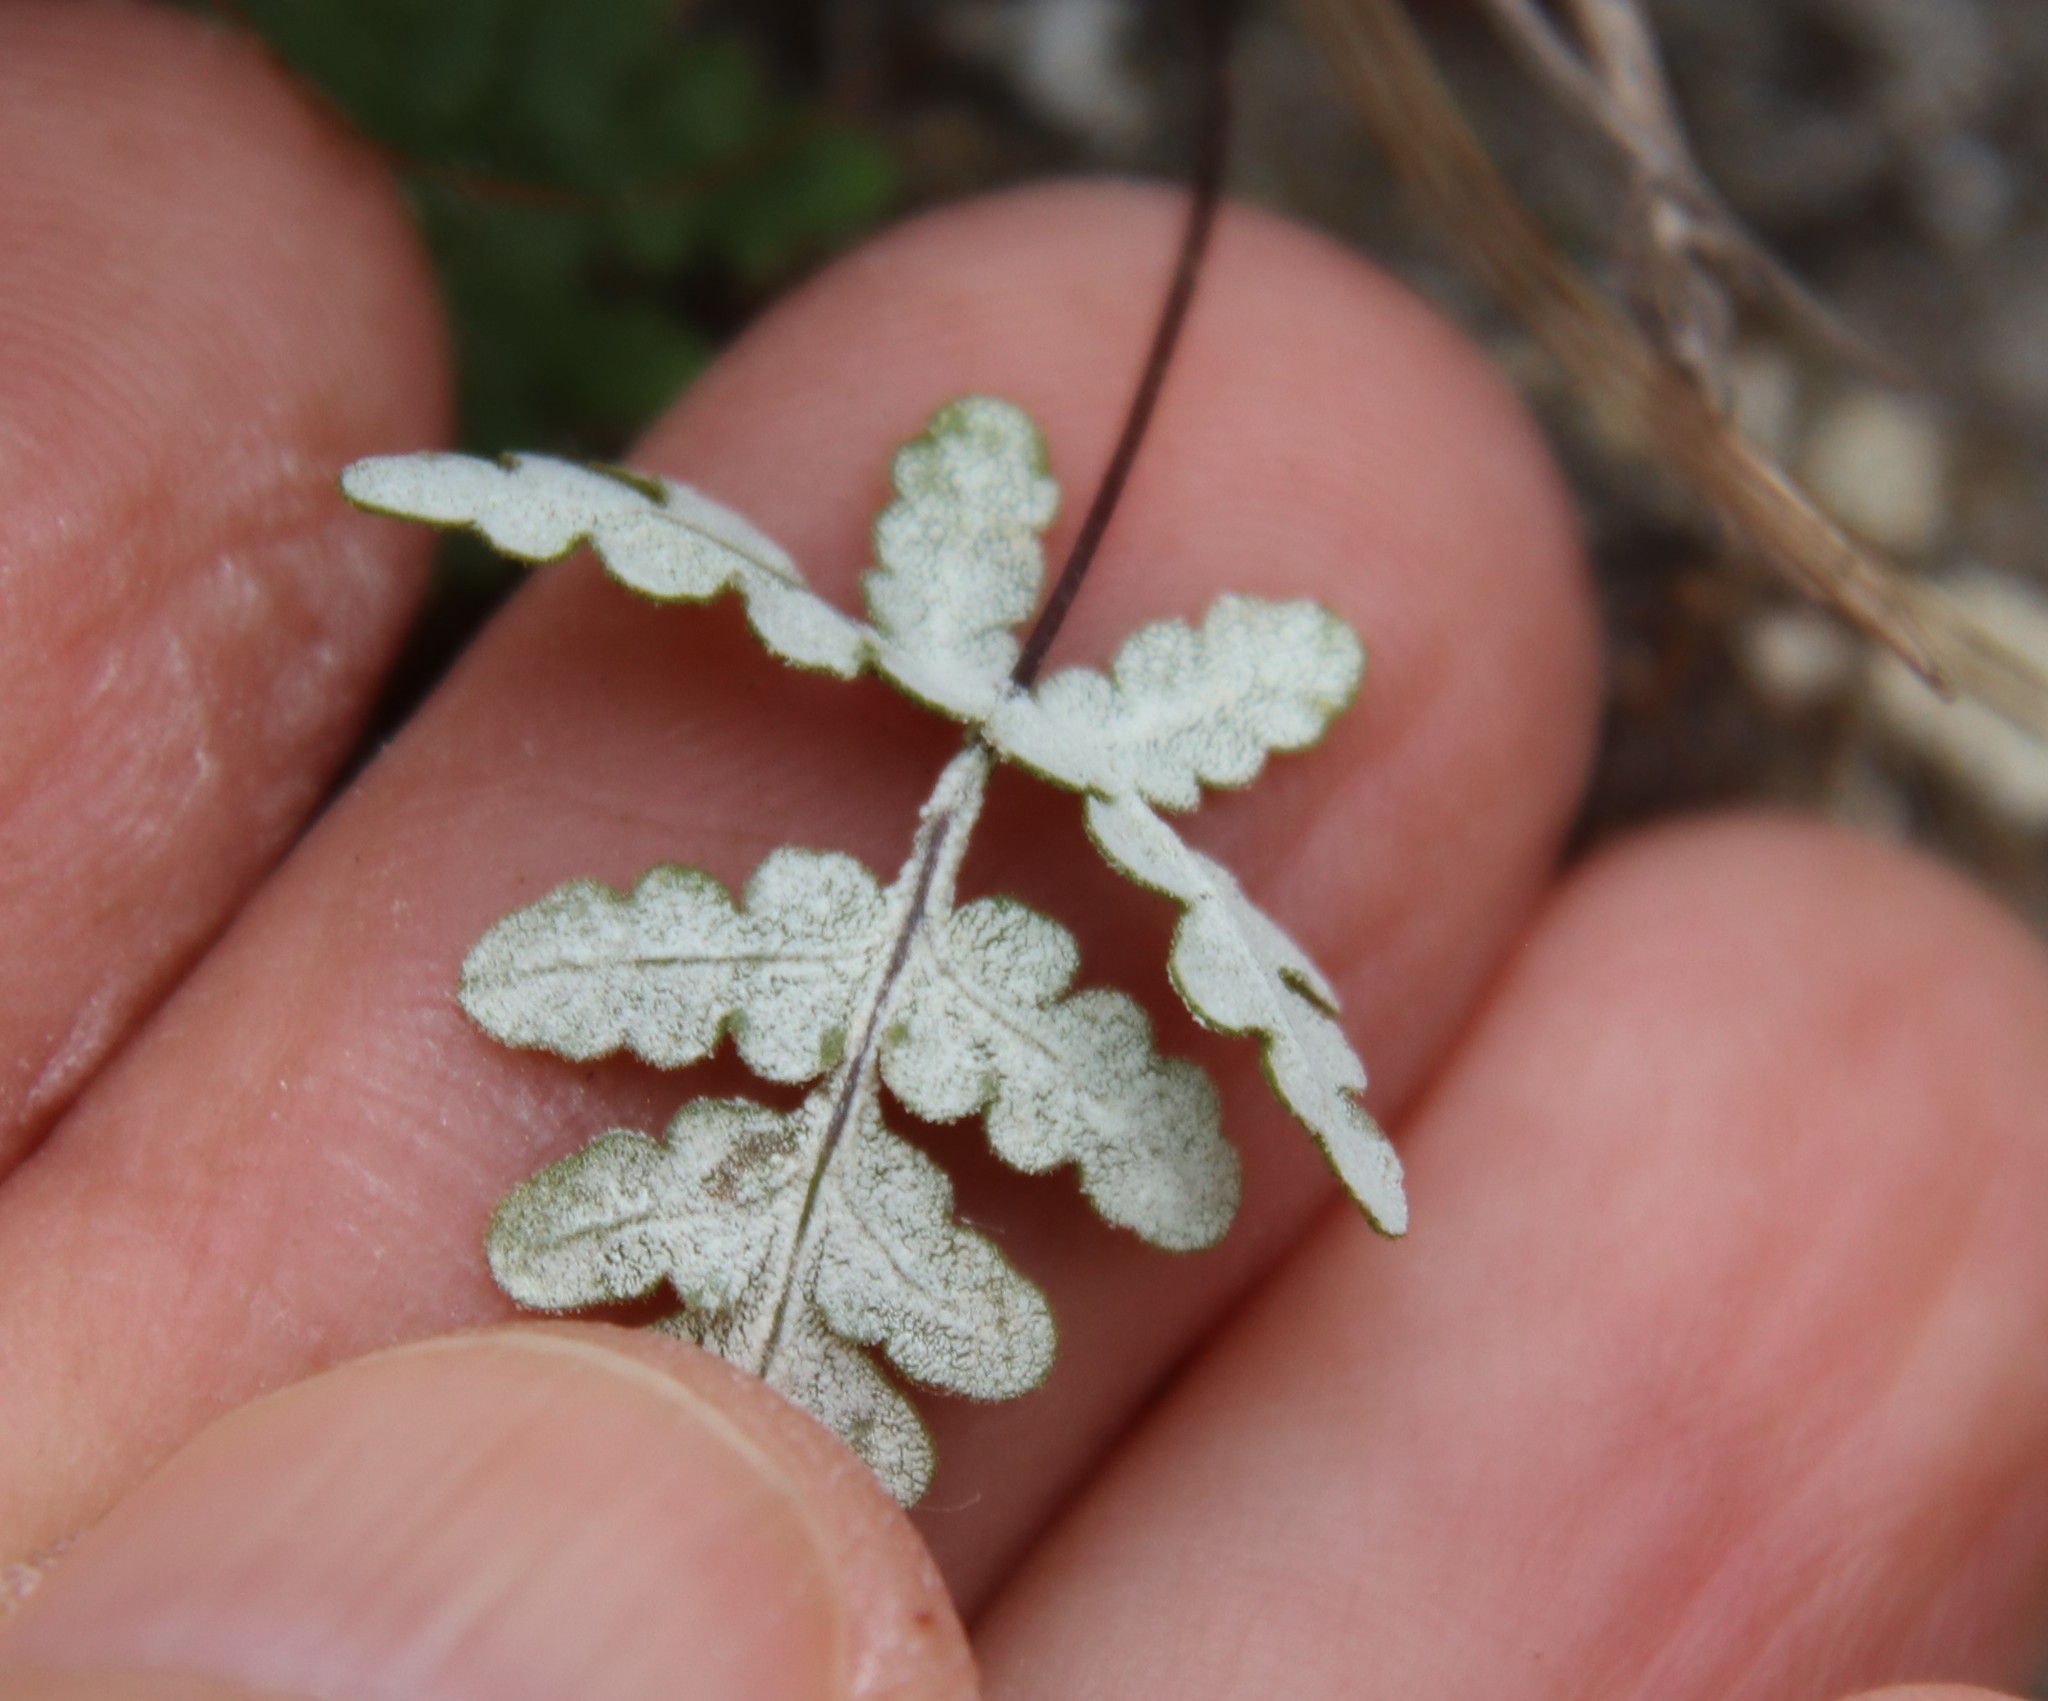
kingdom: Plantae
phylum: Tracheophyta
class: Polypodiopsida
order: Polypodiales
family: Pteridaceae
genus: Pentagramma
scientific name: Pentagramma glanduloviscida
